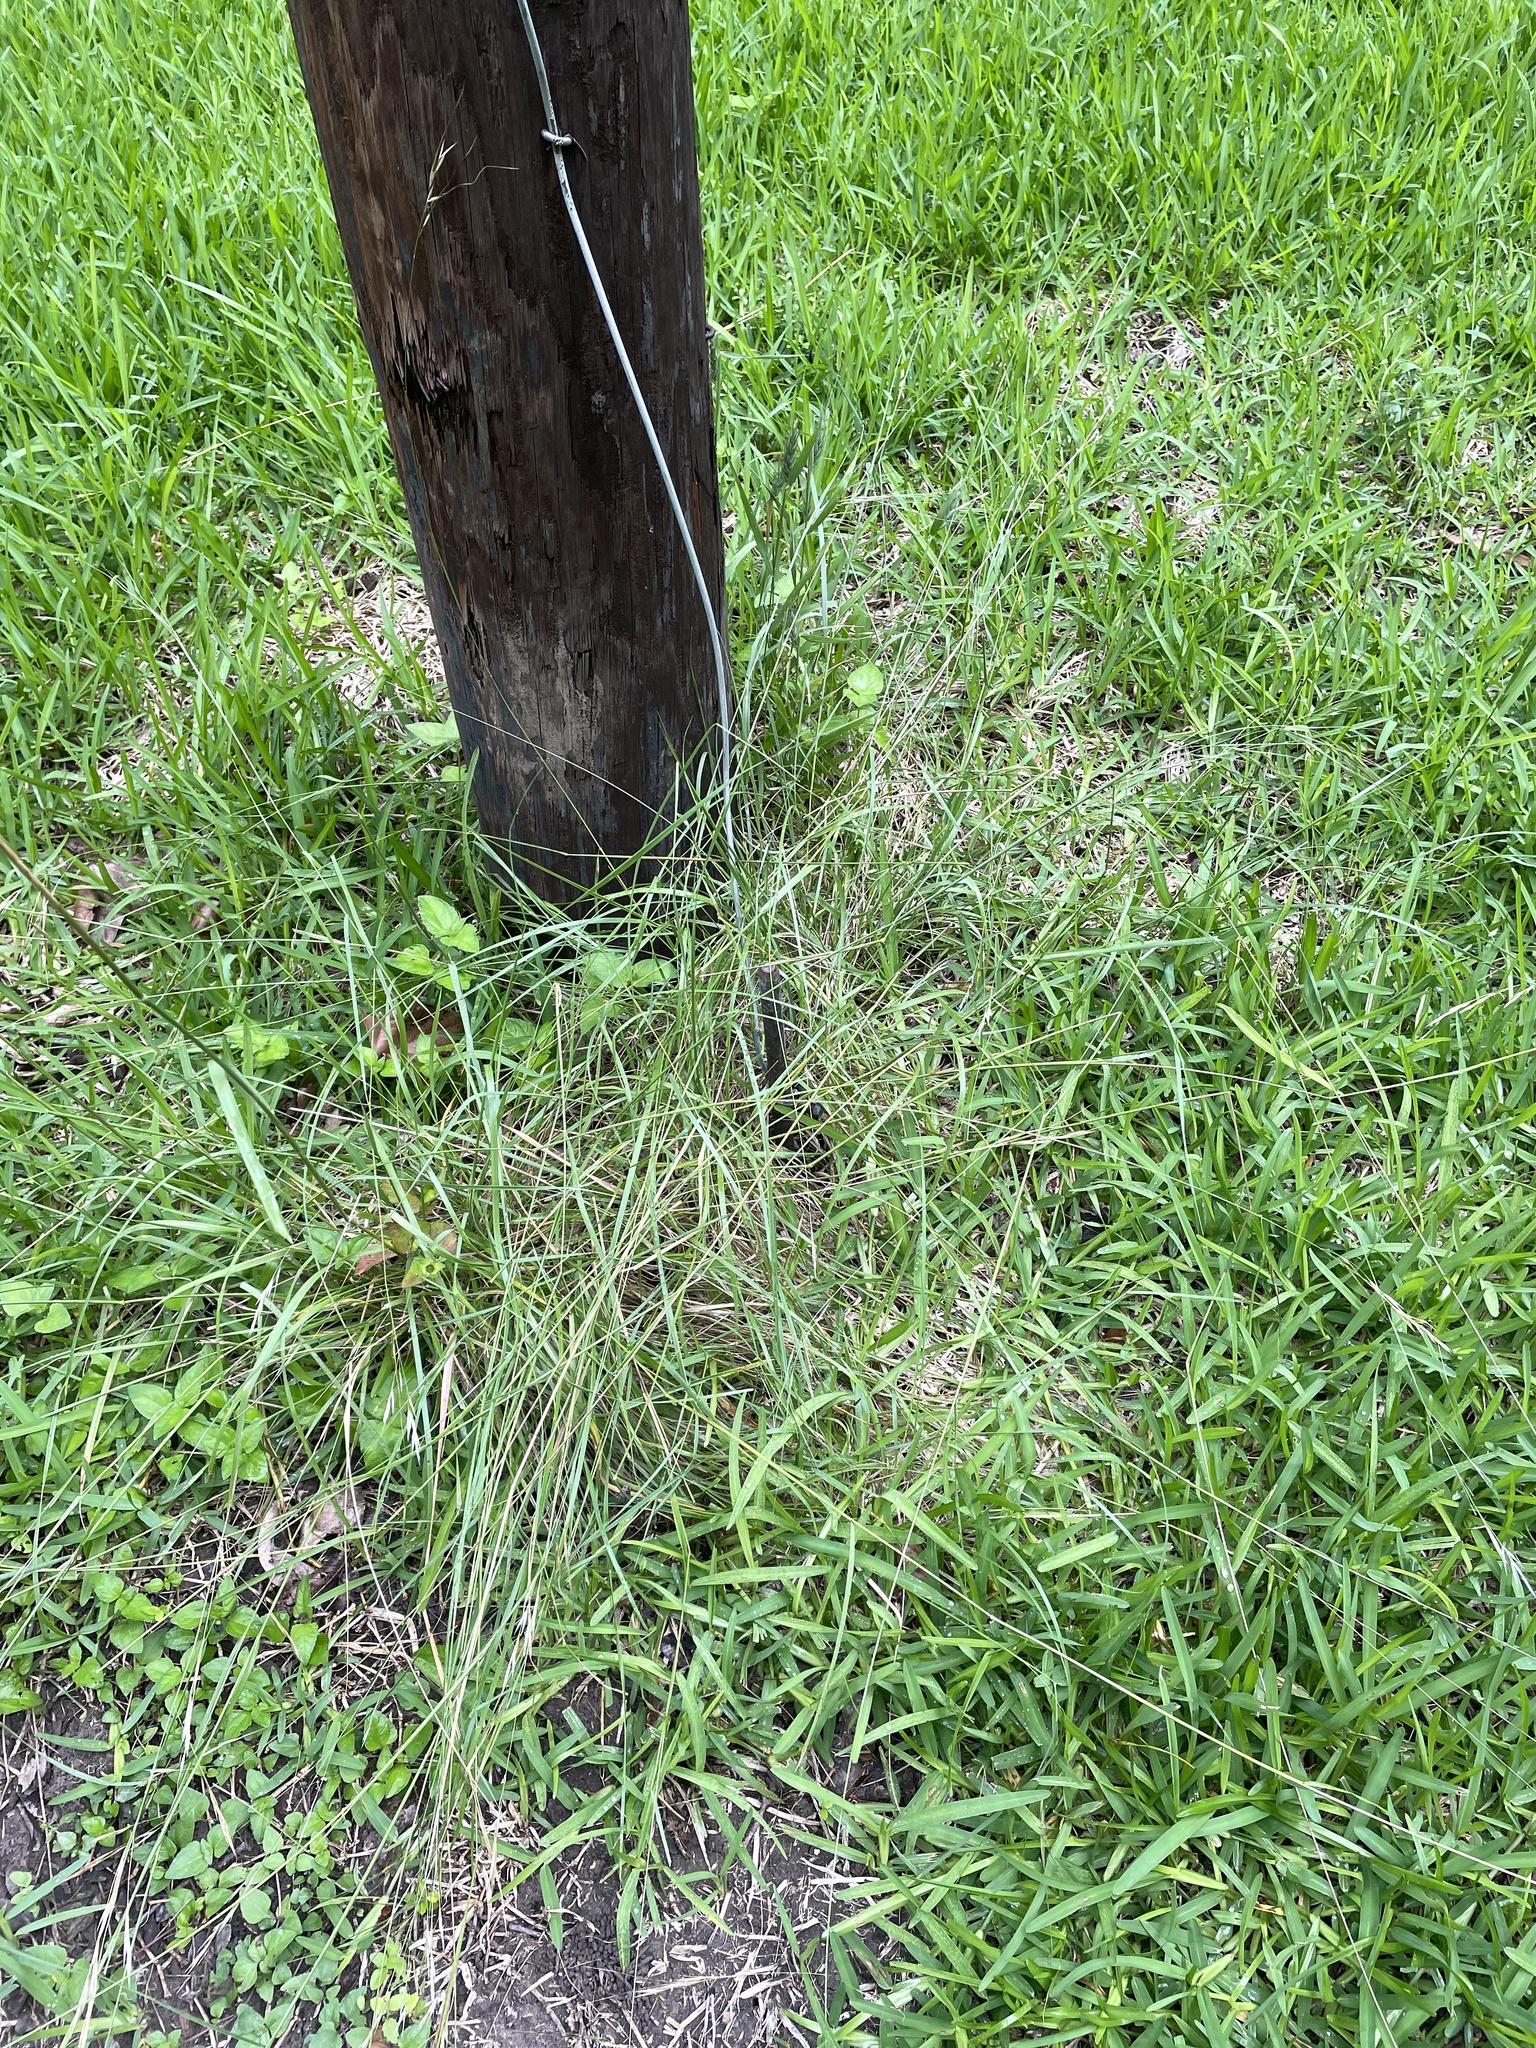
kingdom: Plantae
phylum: Tracheophyta
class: Liliopsida
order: Poales
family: Poaceae
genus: Nassella
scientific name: Nassella leucotricha
